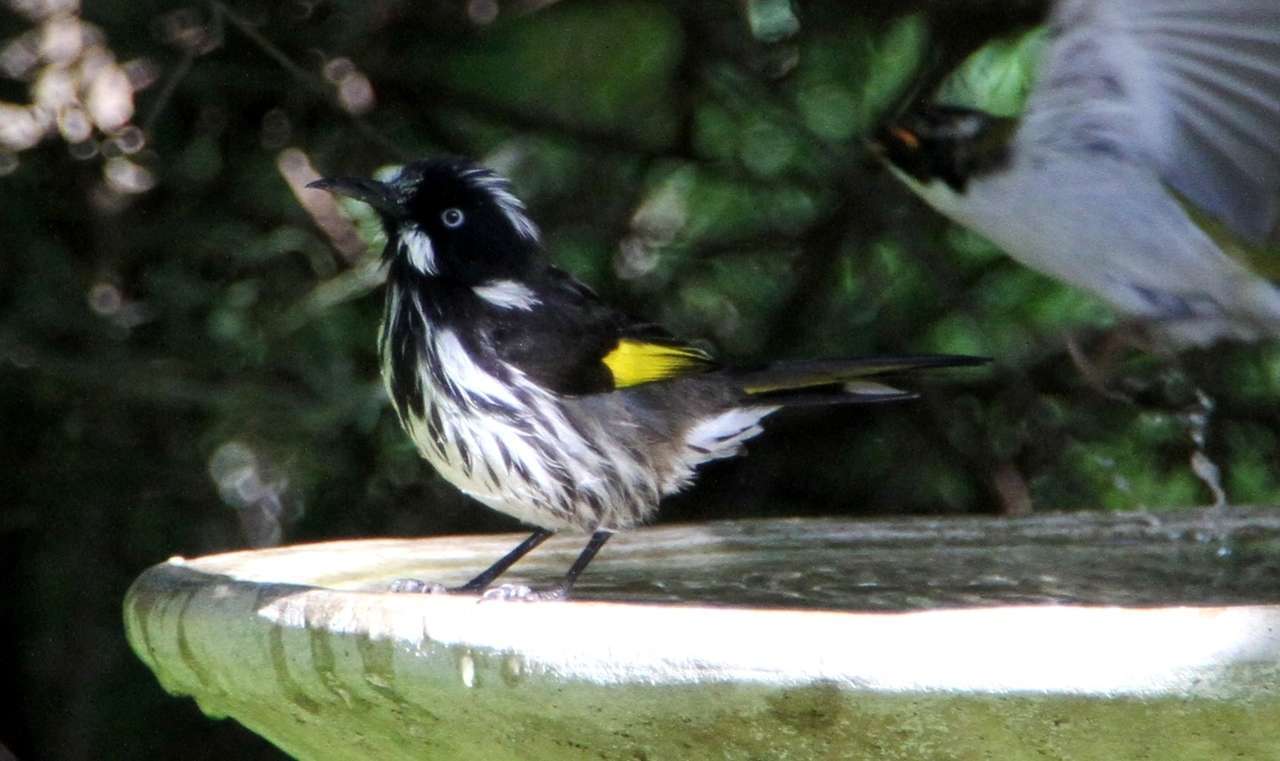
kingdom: Animalia
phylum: Chordata
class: Aves
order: Passeriformes
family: Meliphagidae
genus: Phylidonyris
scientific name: Phylidonyris novaehollandiae
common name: New holland honeyeater
